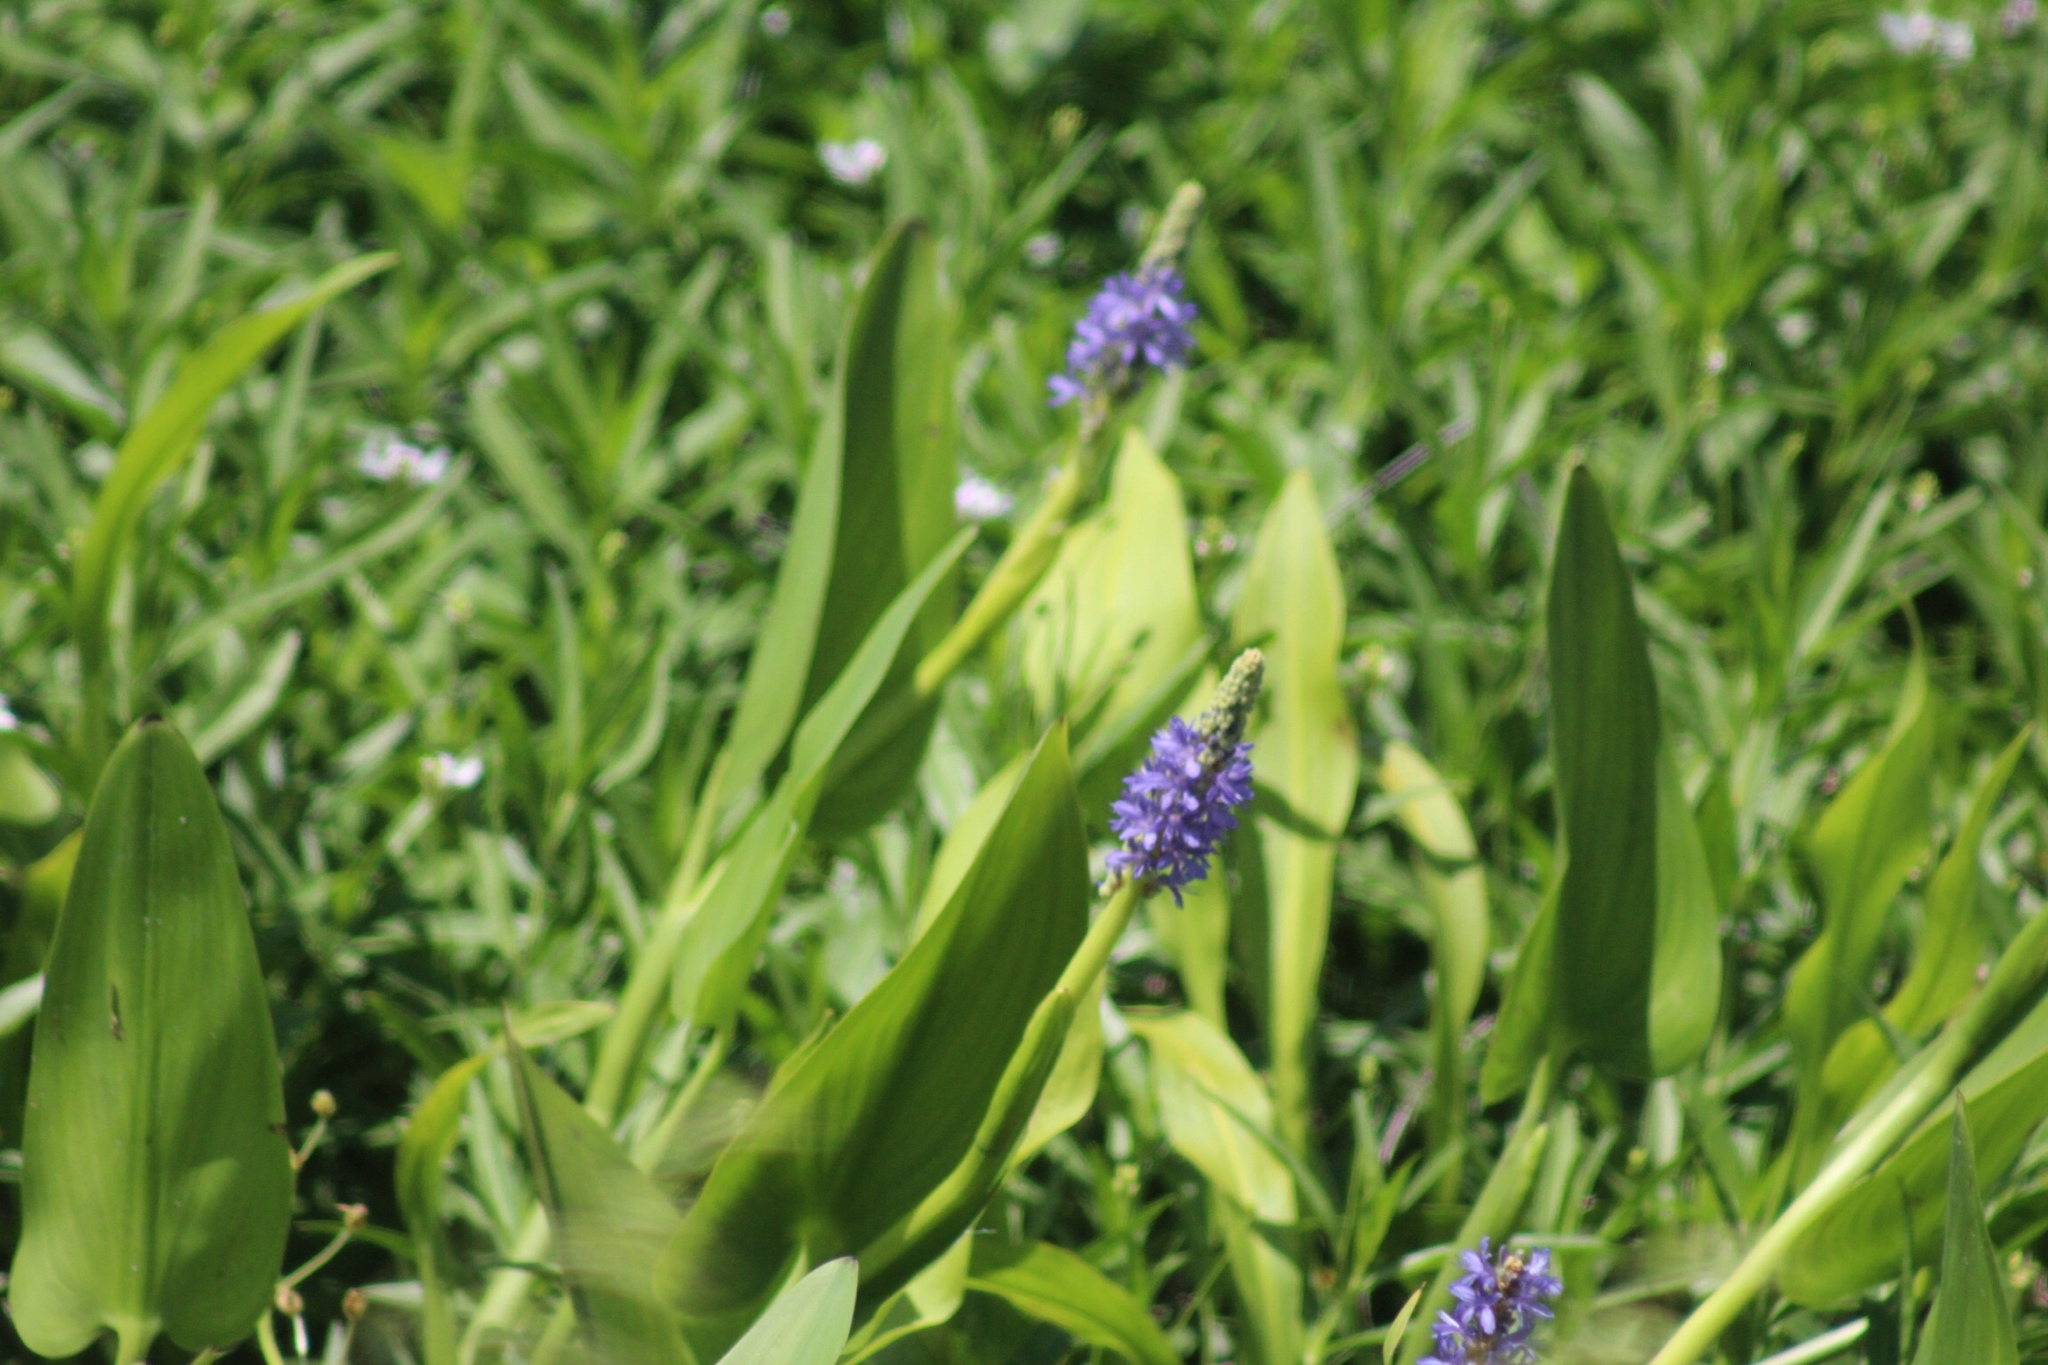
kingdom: Plantae
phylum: Tracheophyta
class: Liliopsida
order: Commelinales
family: Pontederiaceae
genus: Pontederia
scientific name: Pontederia cordata
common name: Pickerelweed
